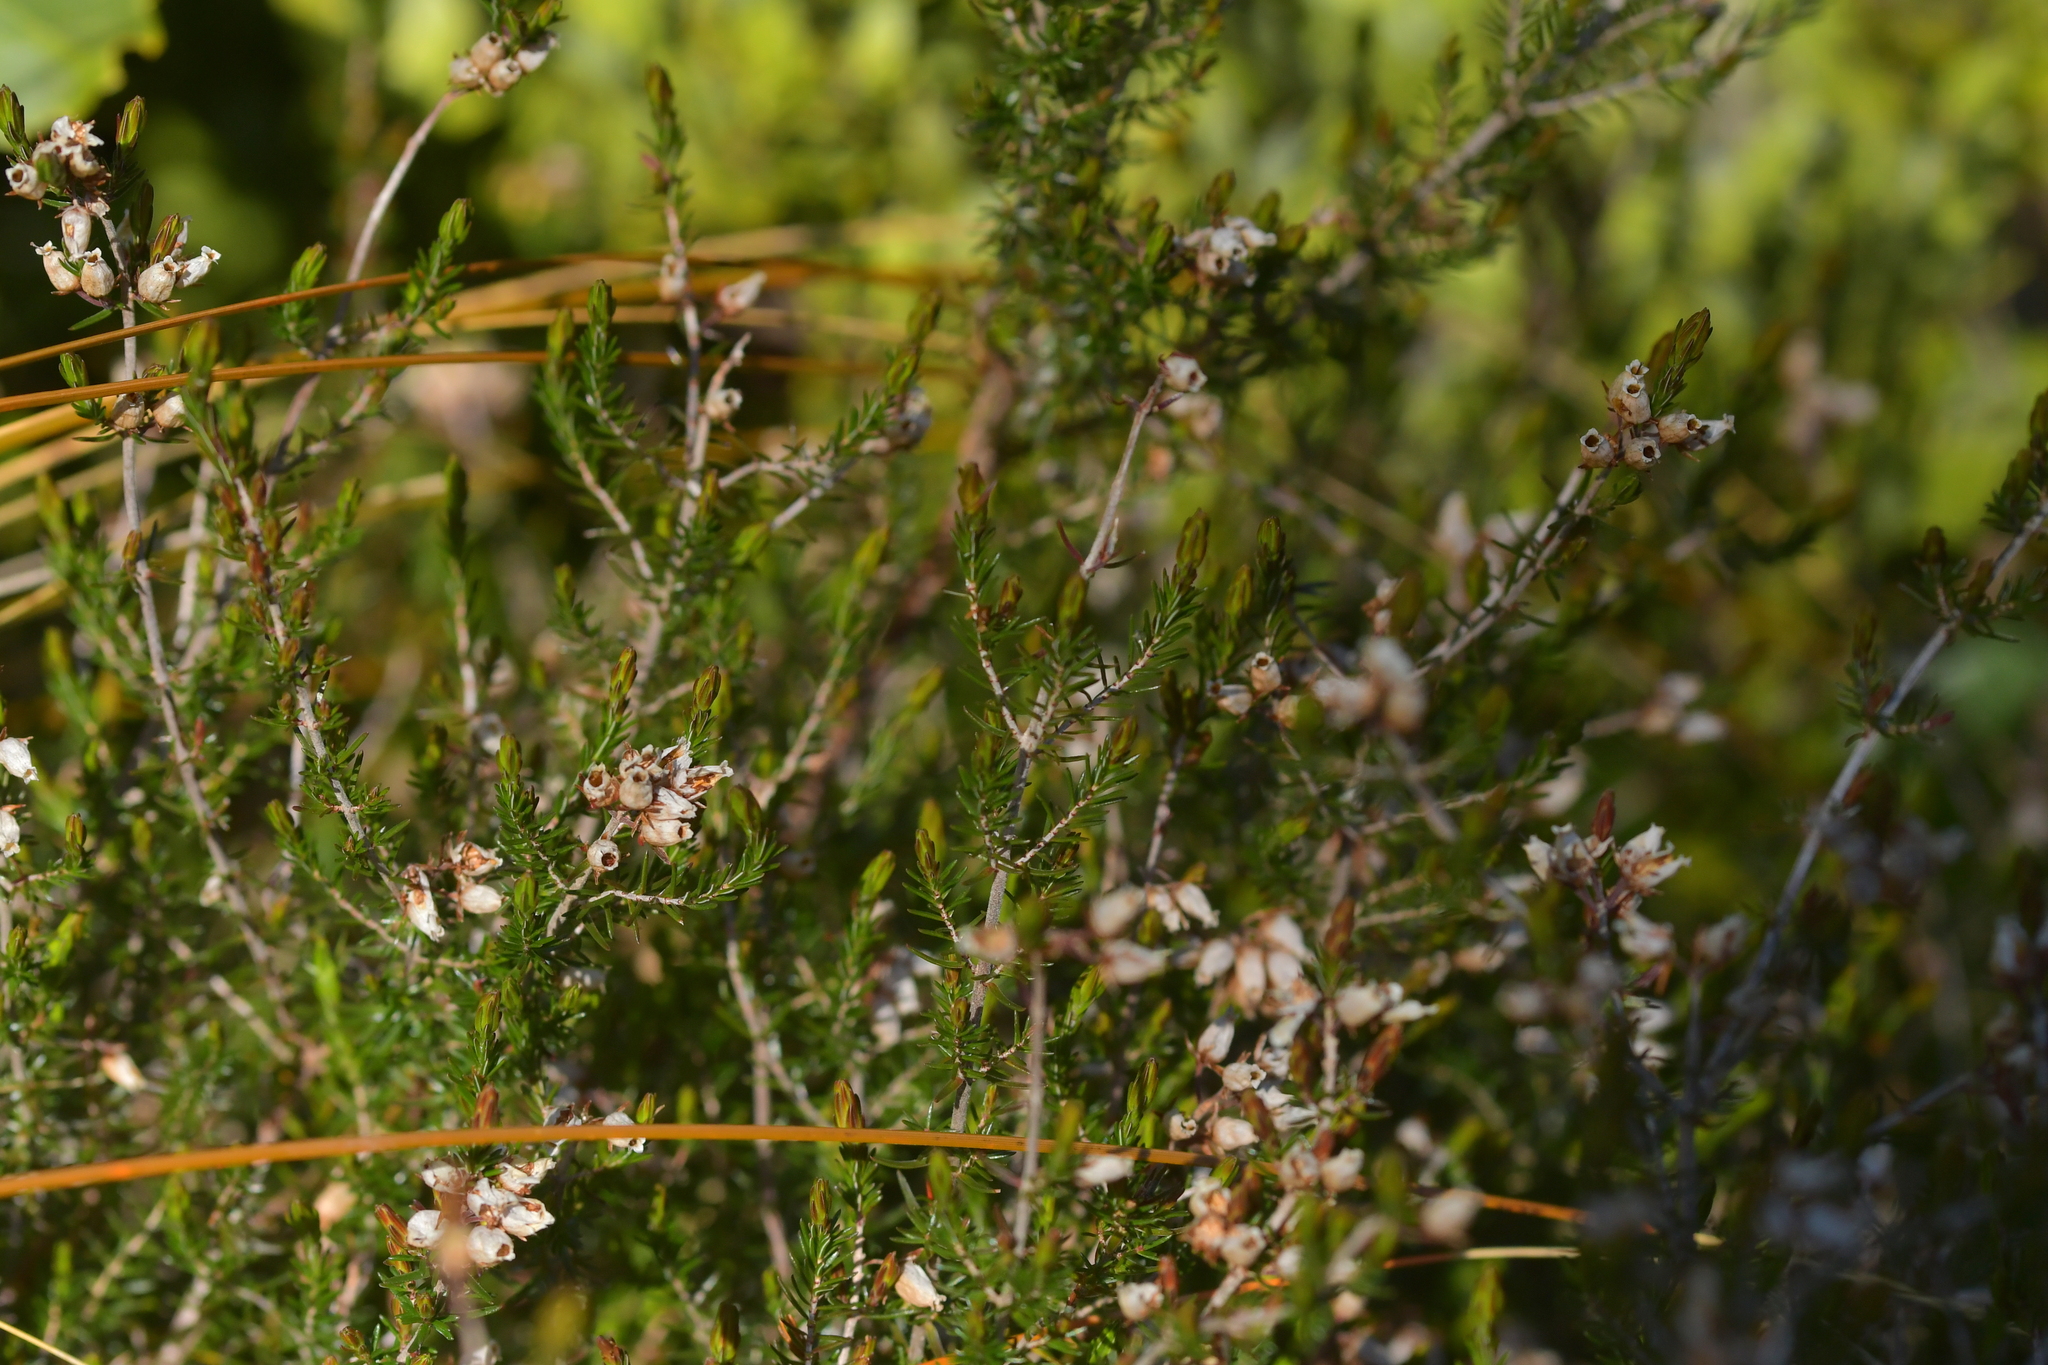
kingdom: Plantae
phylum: Tracheophyta
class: Magnoliopsida
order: Ericales
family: Ericaceae
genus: Calluna
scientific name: Calluna vulgaris
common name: Heather
